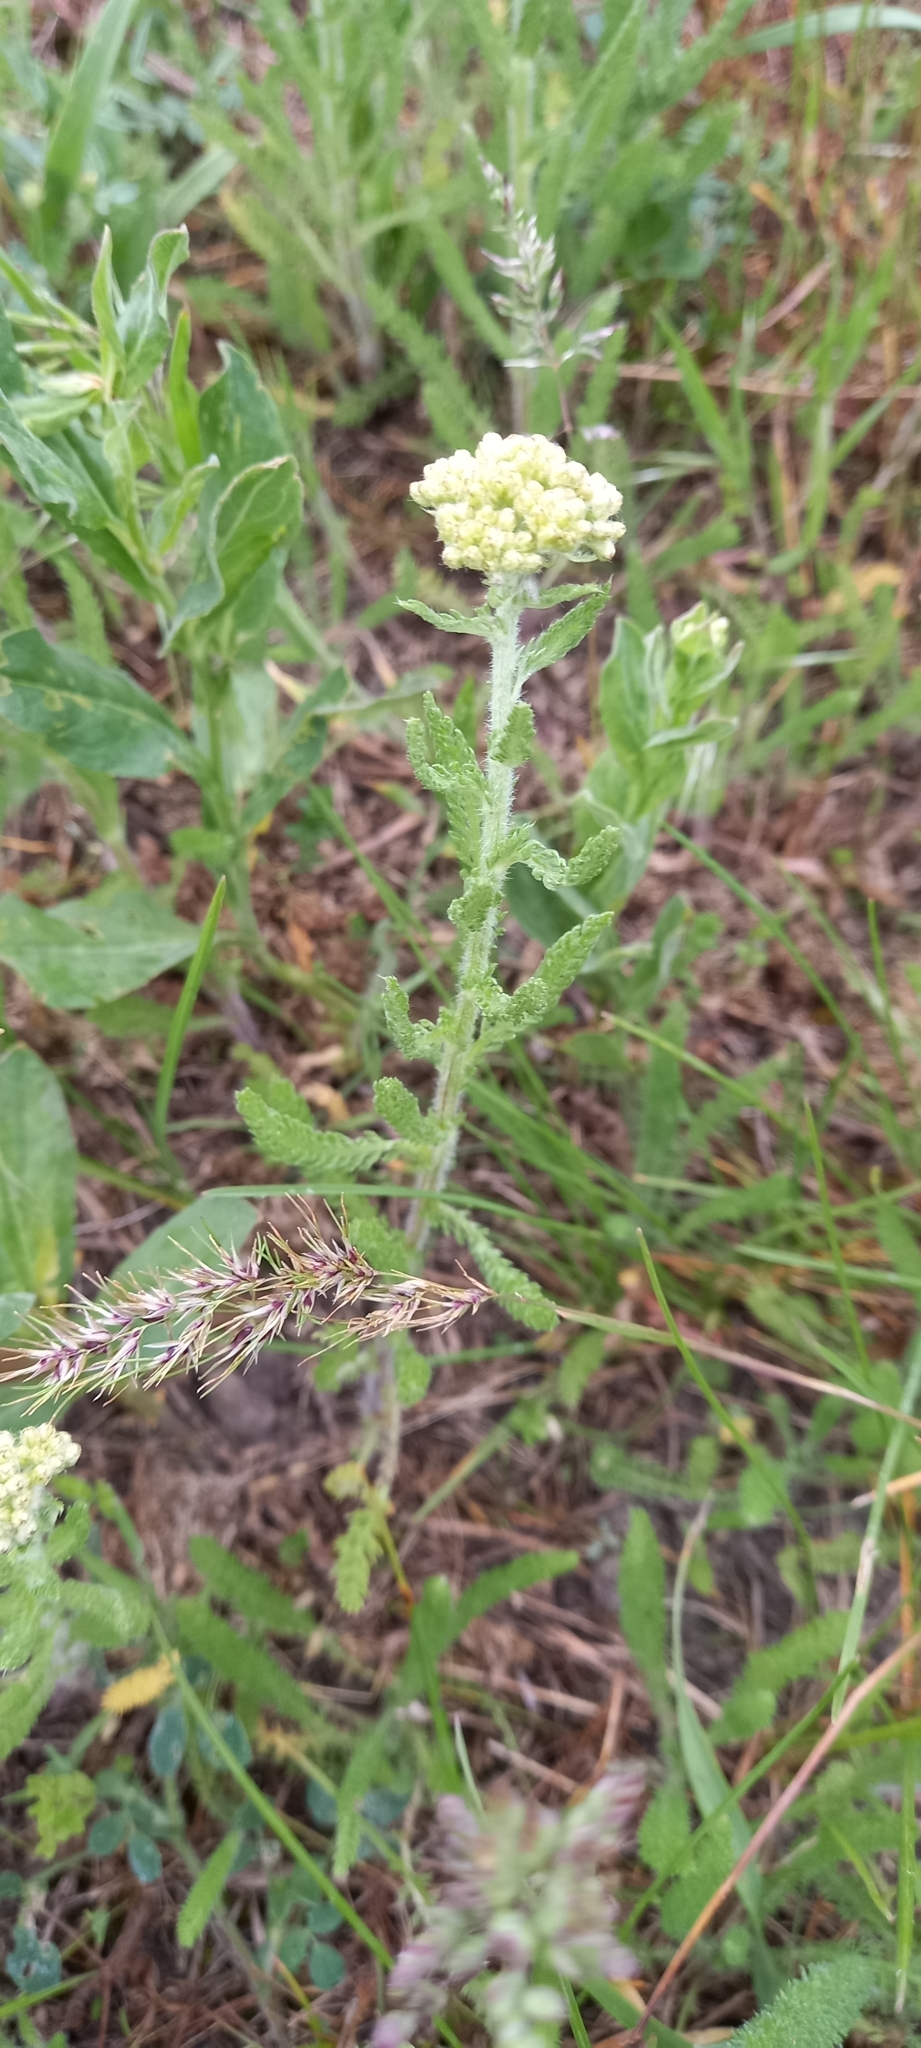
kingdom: Plantae
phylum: Tracheophyta
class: Magnoliopsida
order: Asterales
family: Asteraceae
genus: Achillea
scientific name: Achillea setacea
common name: Bristly yarrow
